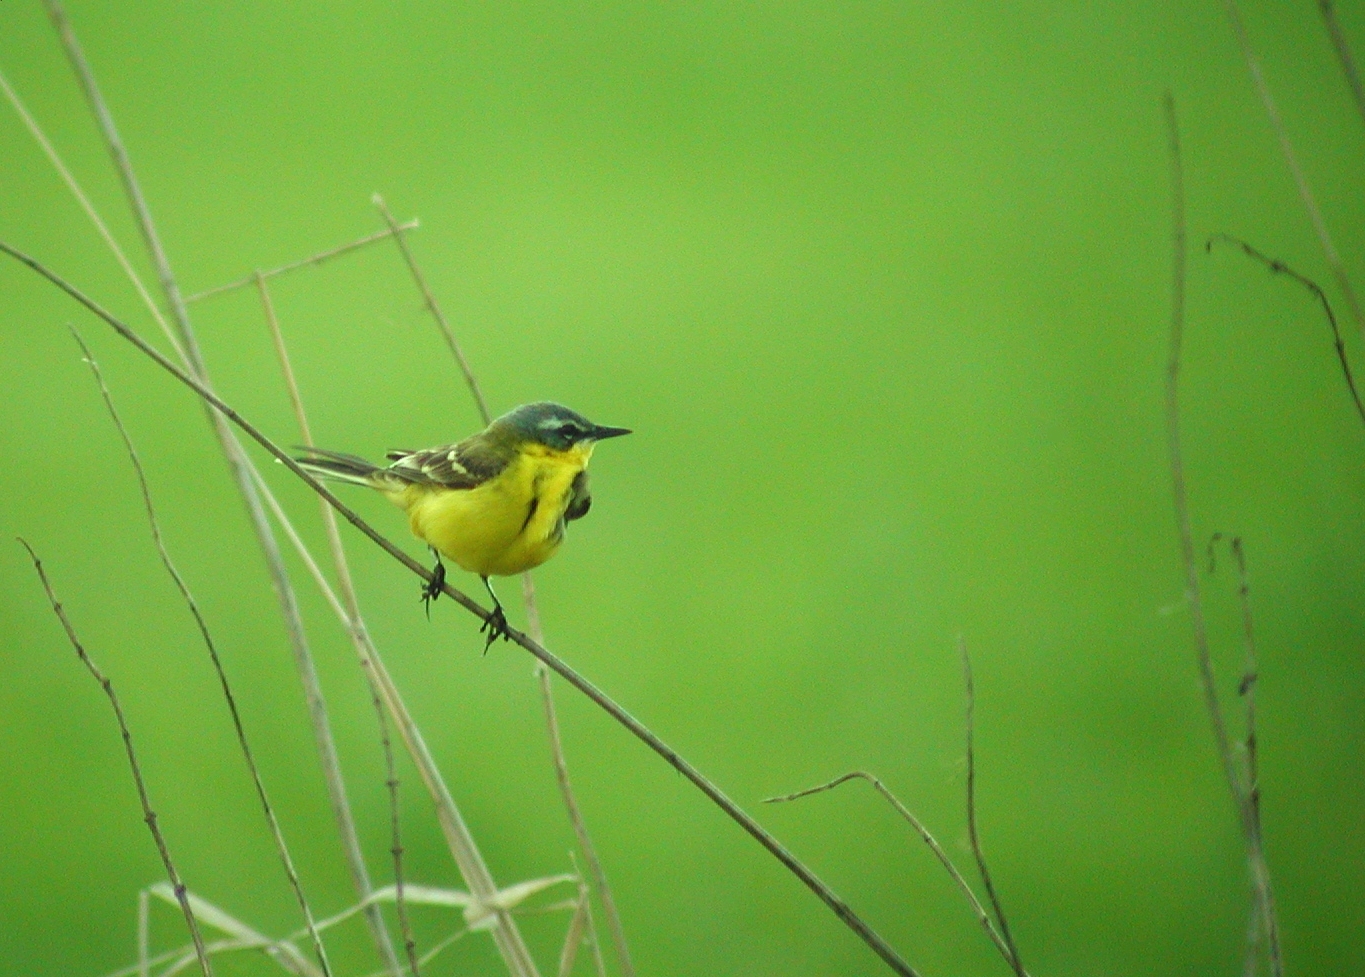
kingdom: Animalia
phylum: Chordata
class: Aves
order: Passeriformes
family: Motacillidae
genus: Motacilla
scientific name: Motacilla flava
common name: Western yellow wagtail
